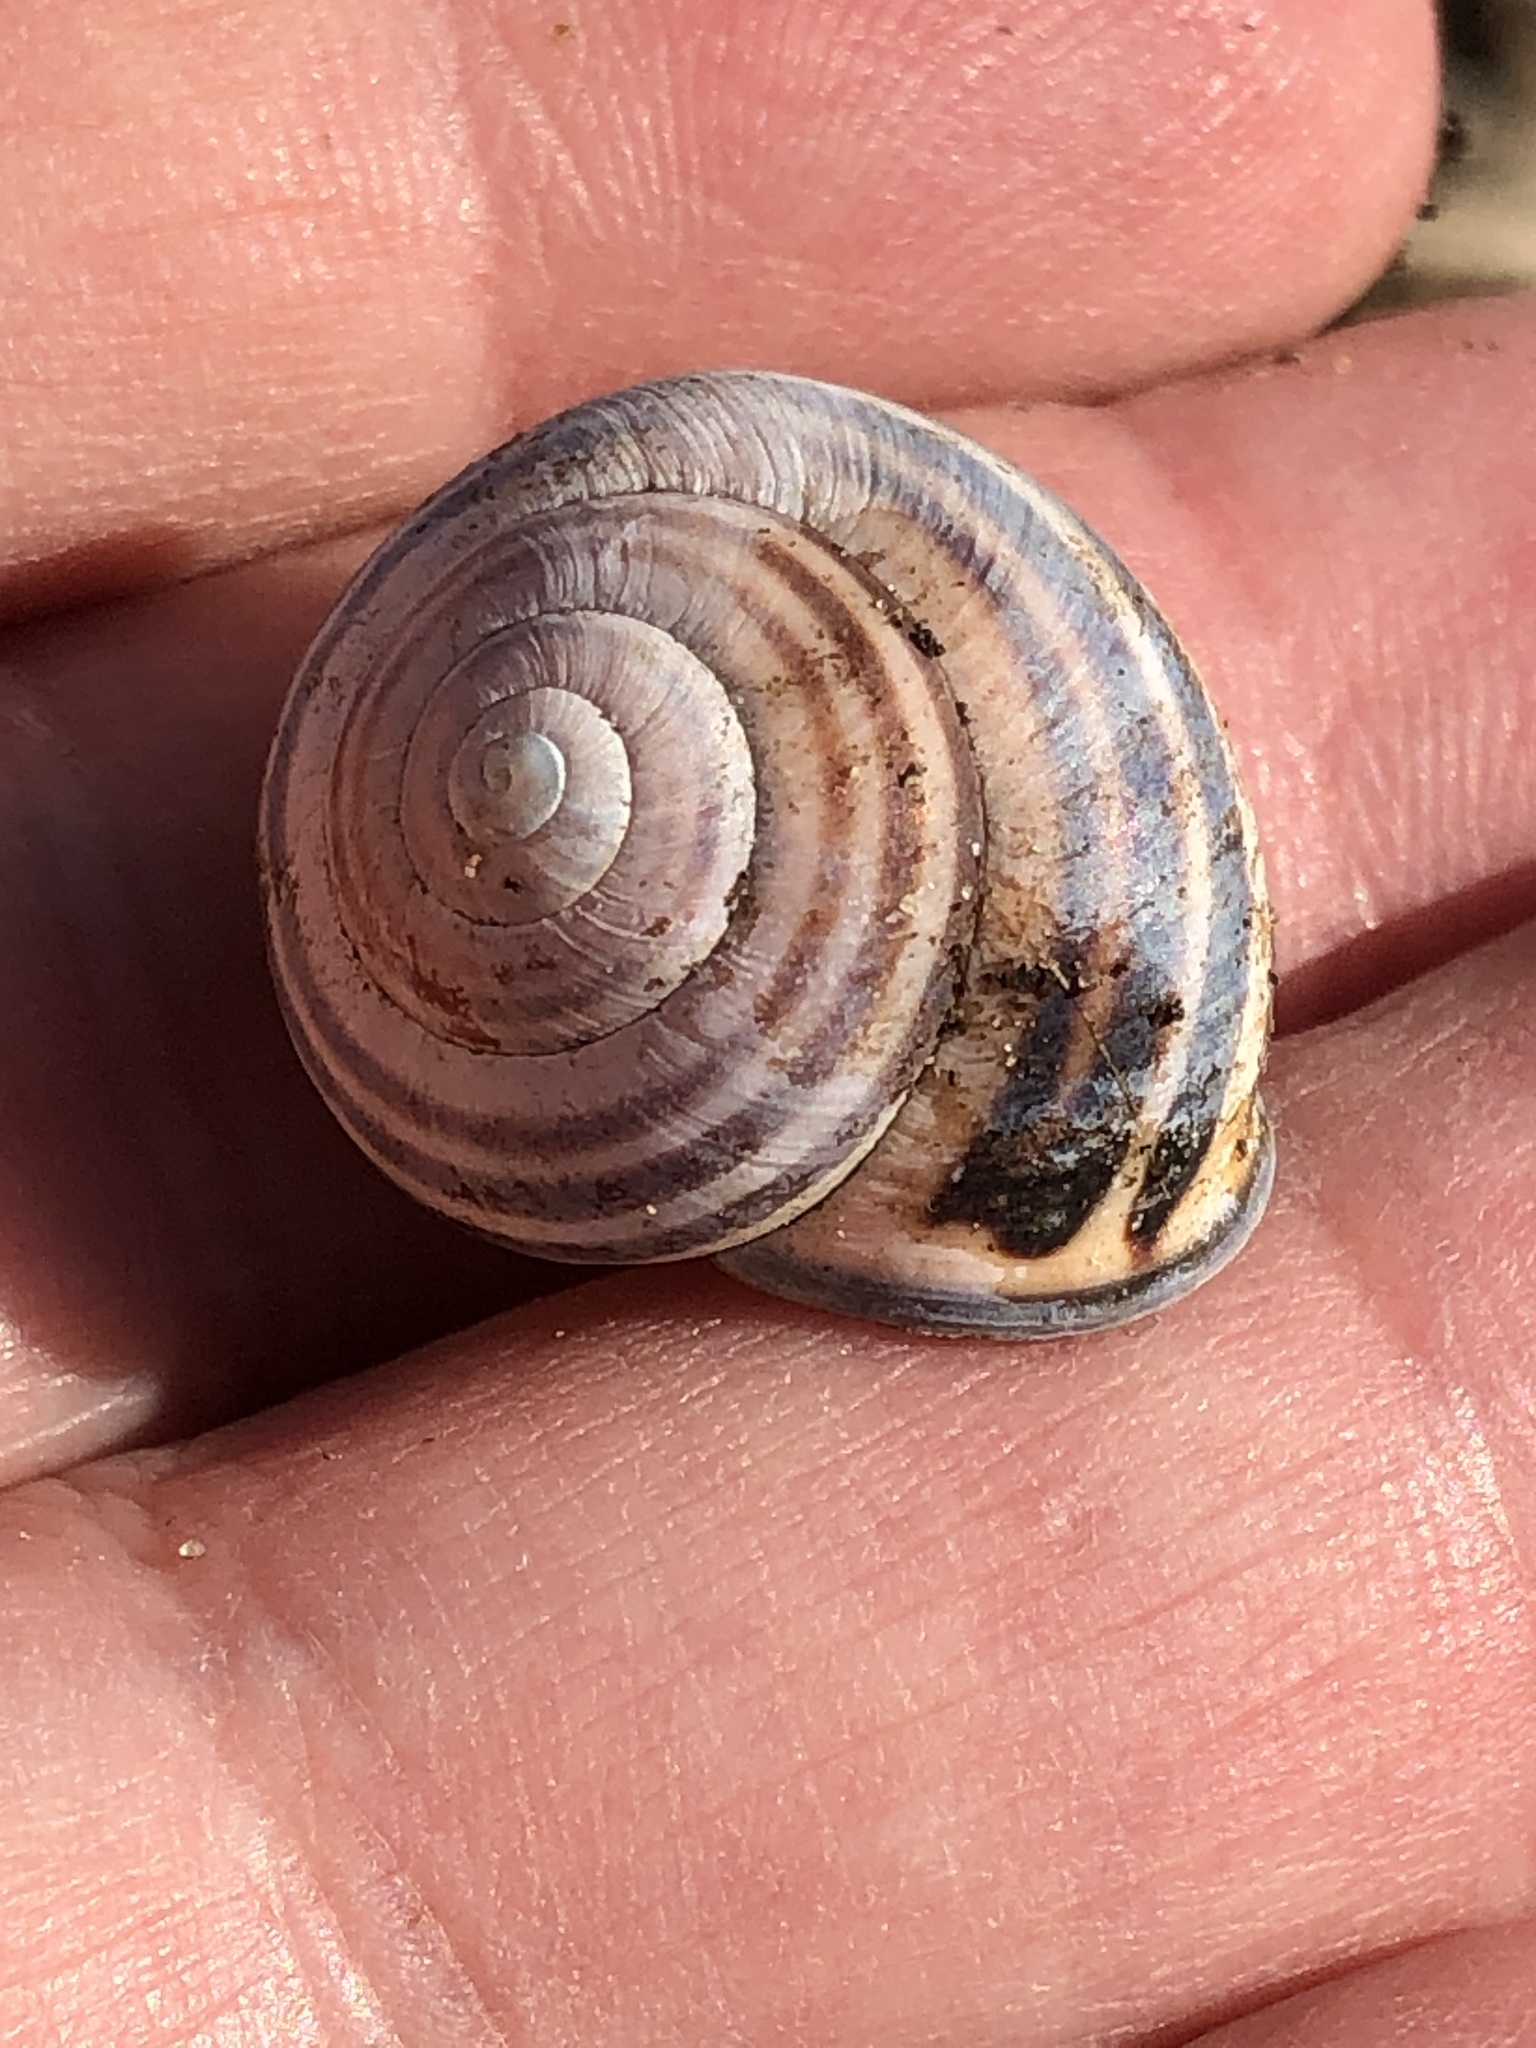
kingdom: Animalia
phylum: Mollusca
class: Gastropoda
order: Stylommatophora
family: Helicidae
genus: Cepaea
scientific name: Cepaea nemoralis
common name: Grovesnail
